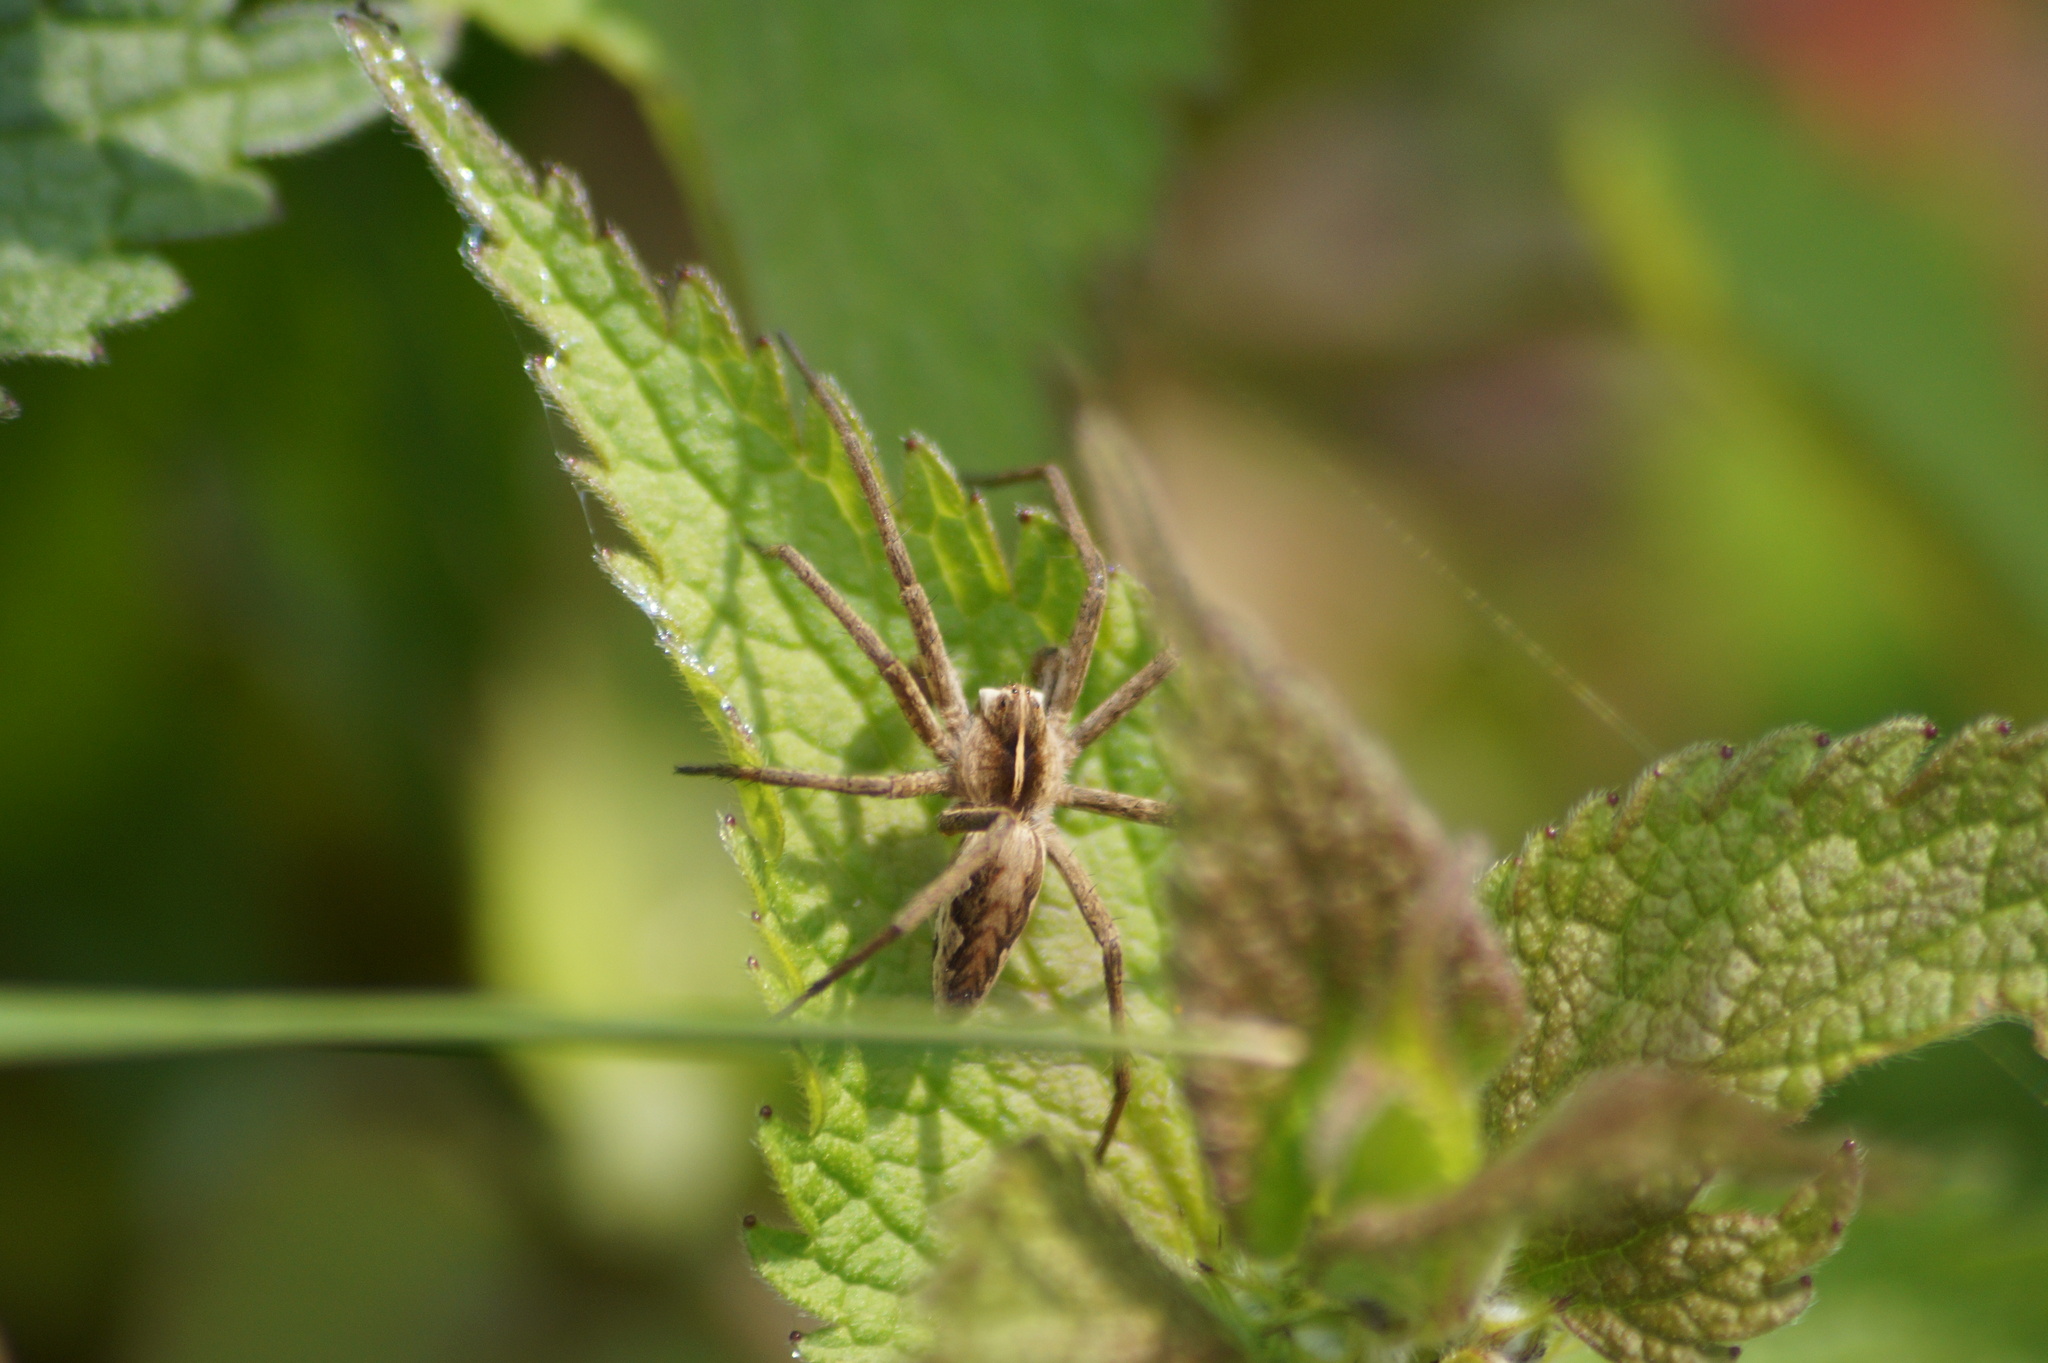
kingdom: Animalia
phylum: Arthropoda
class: Arachnida
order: Araneae
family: Pisauridae
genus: Pisaura
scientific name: Pisaura mirabilis
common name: Tent spider
